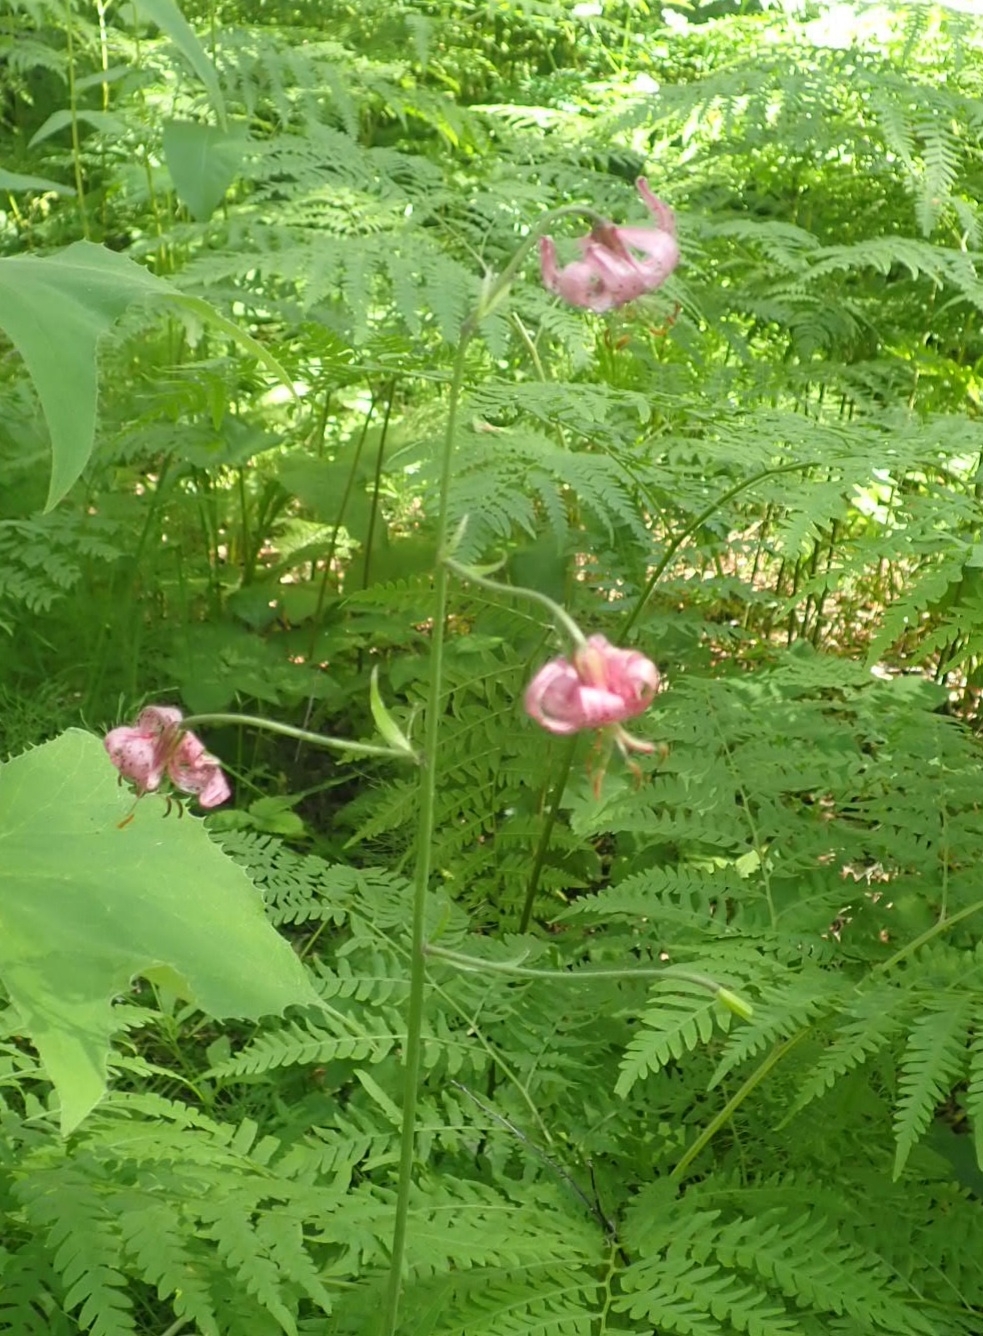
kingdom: Plantae
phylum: Tracheophyta
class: Liliopsida
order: Liliales
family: Liliaceae
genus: Lilium
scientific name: Lilium martagon
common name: Martagon lily
